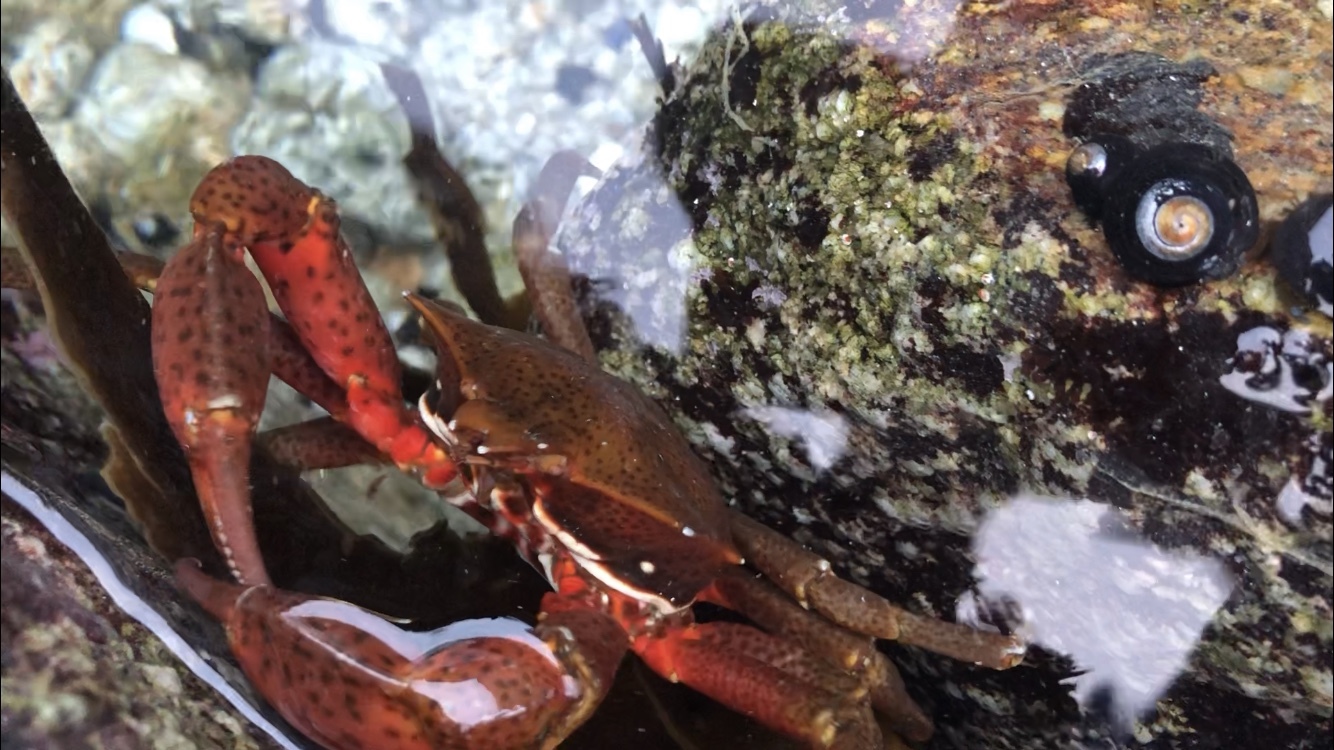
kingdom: Animalia
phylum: Arthropoda
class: Malacostraca
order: Decapoda
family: Epialtidae
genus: Pugettia
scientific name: Pugettia producta
